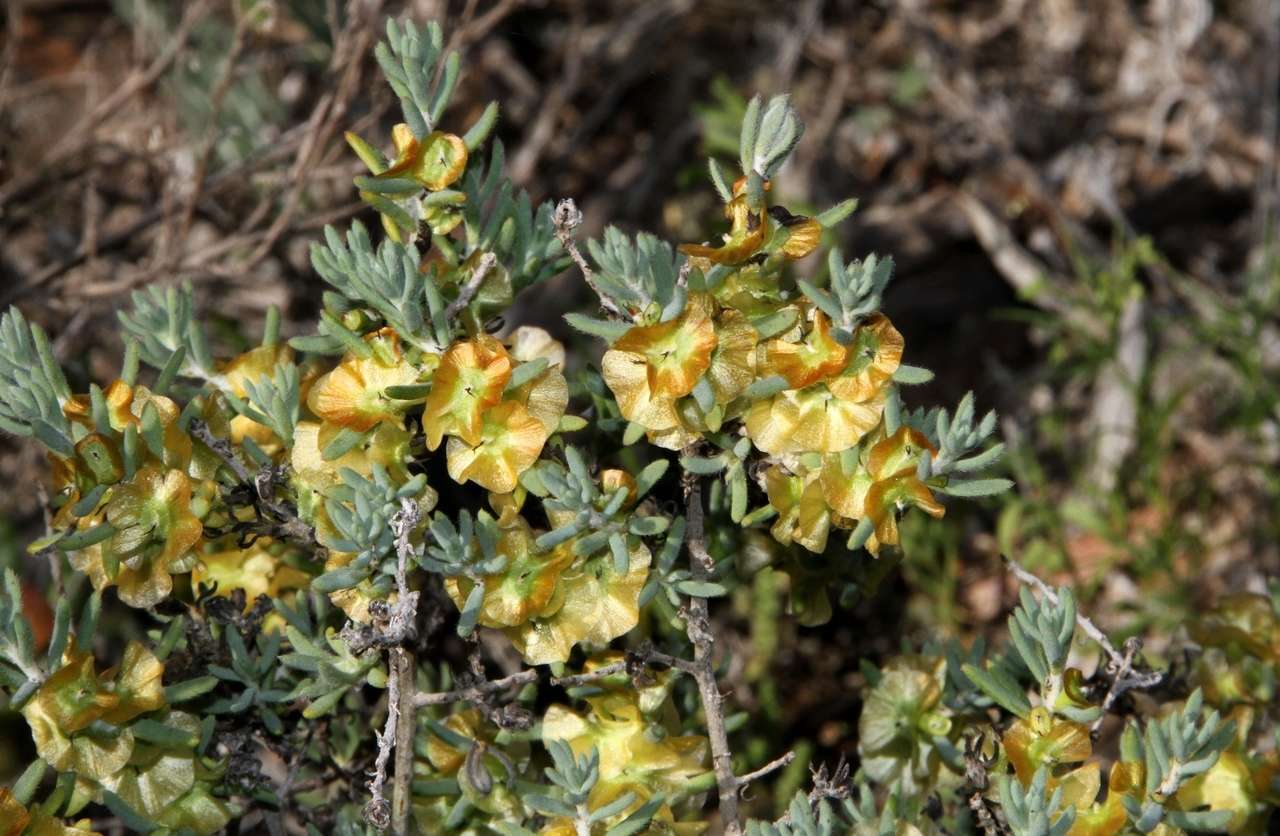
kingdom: Plantae
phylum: Tracheophyta
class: Magnoliopsida
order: Caryophyllales
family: Amaranthaceae
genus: Maireana
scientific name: Maireana turbinata
